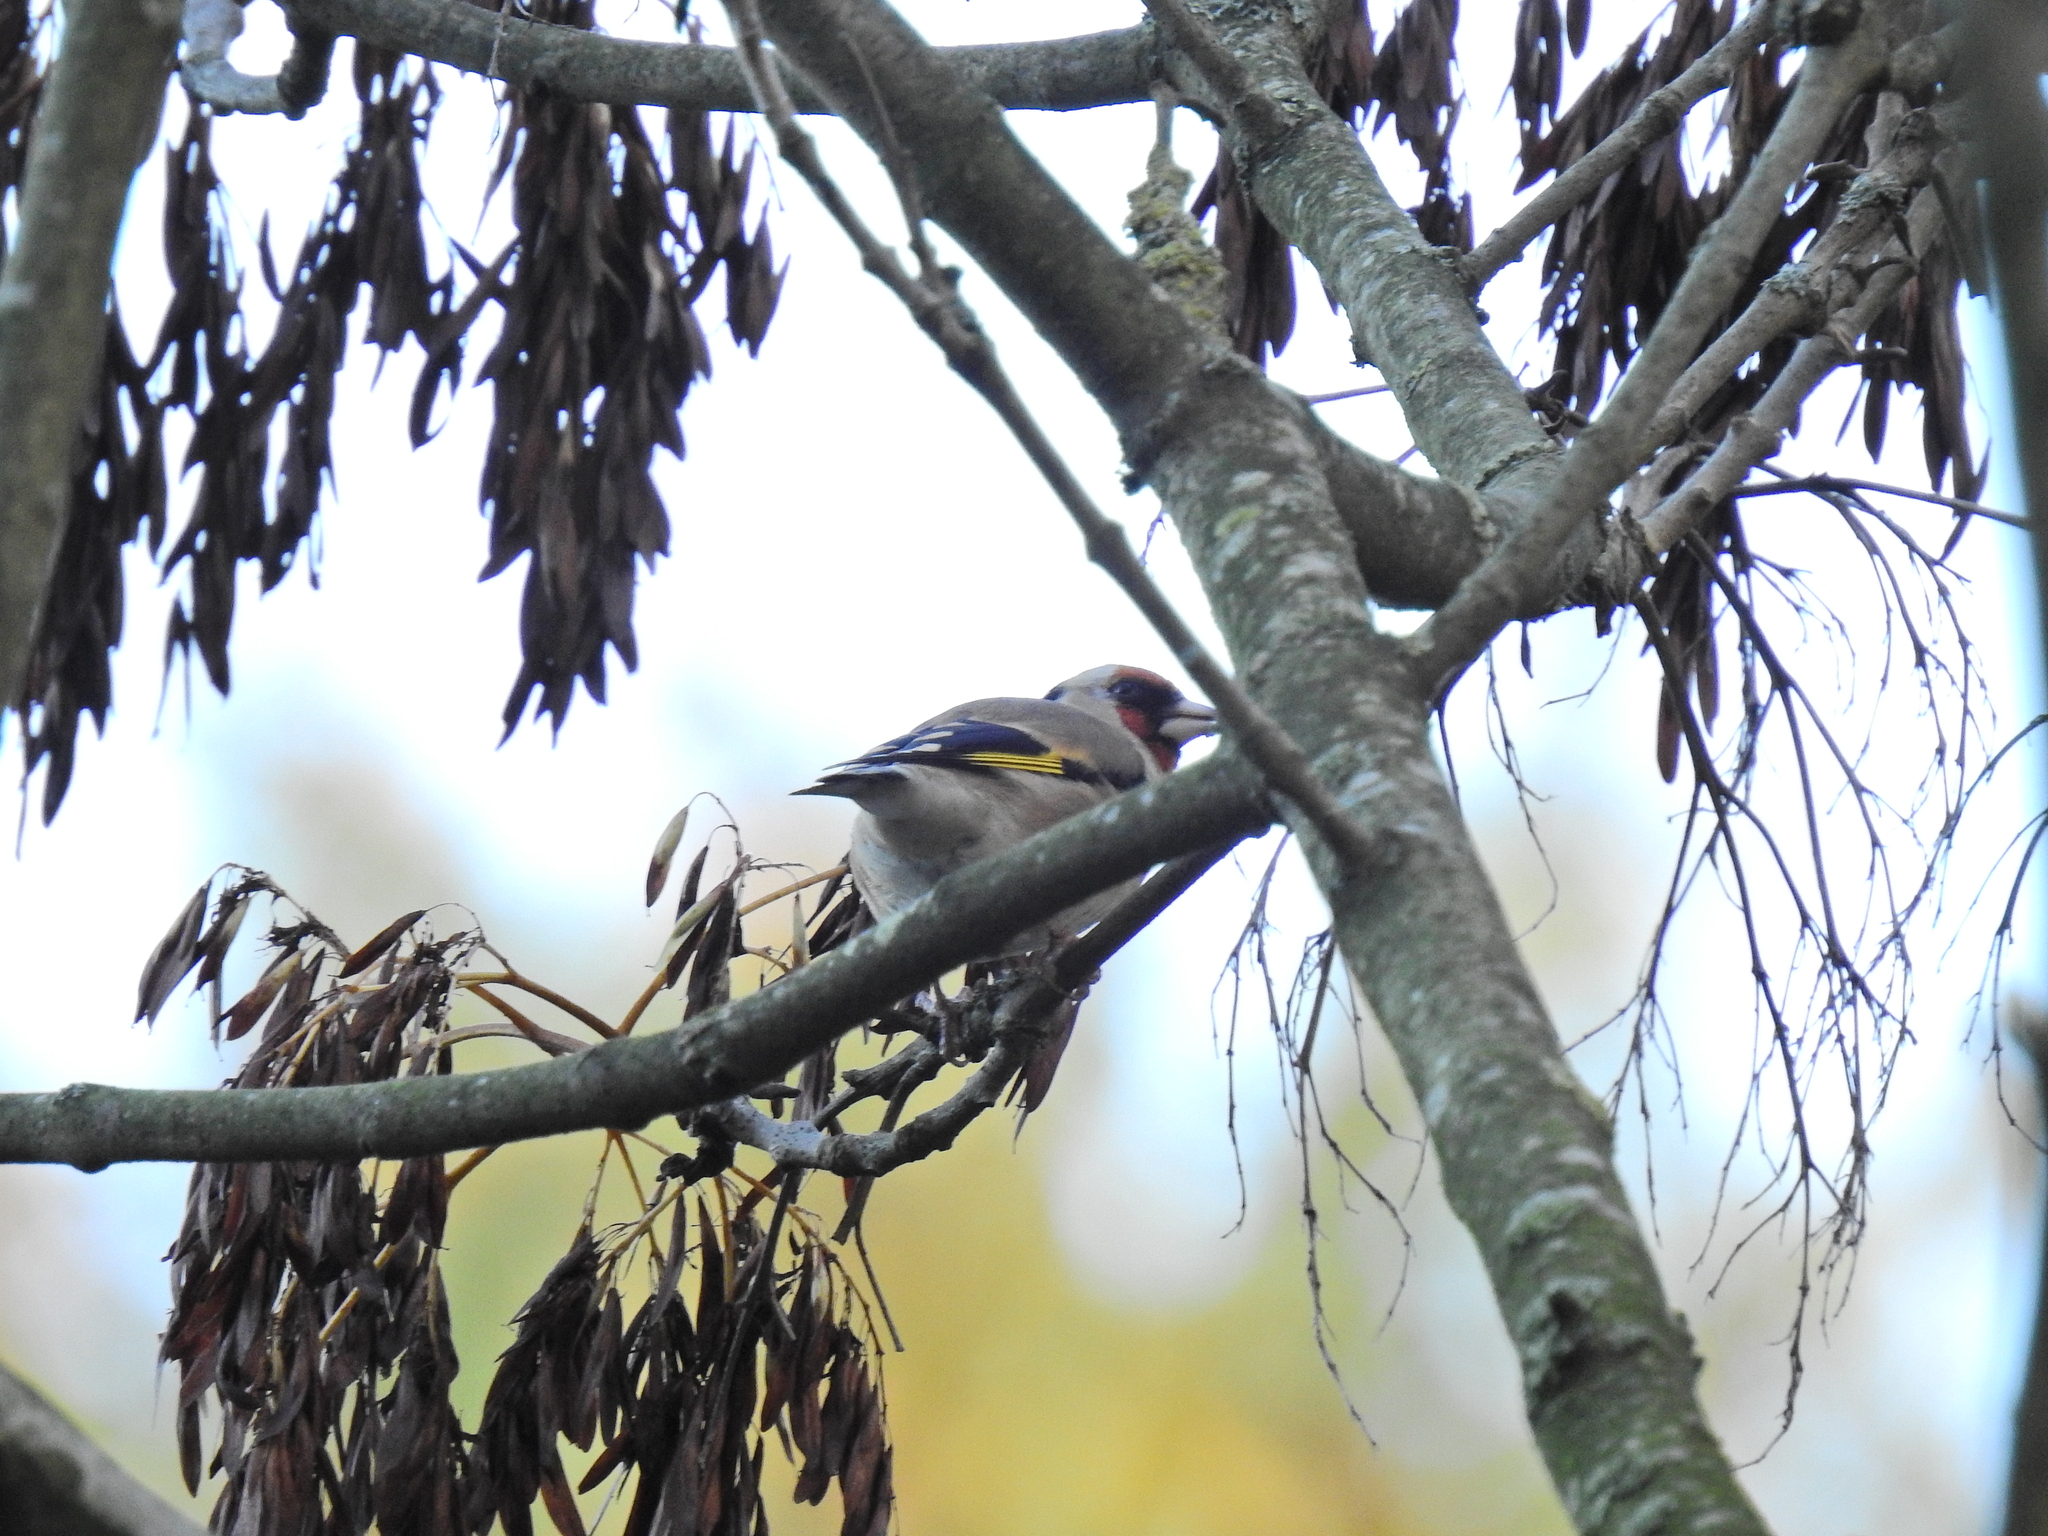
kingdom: Animalia
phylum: Chordata
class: Aves
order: Passeriformes
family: Fringillidae
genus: Carduelis
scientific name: Carduelis carduelis
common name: European goldfinch
